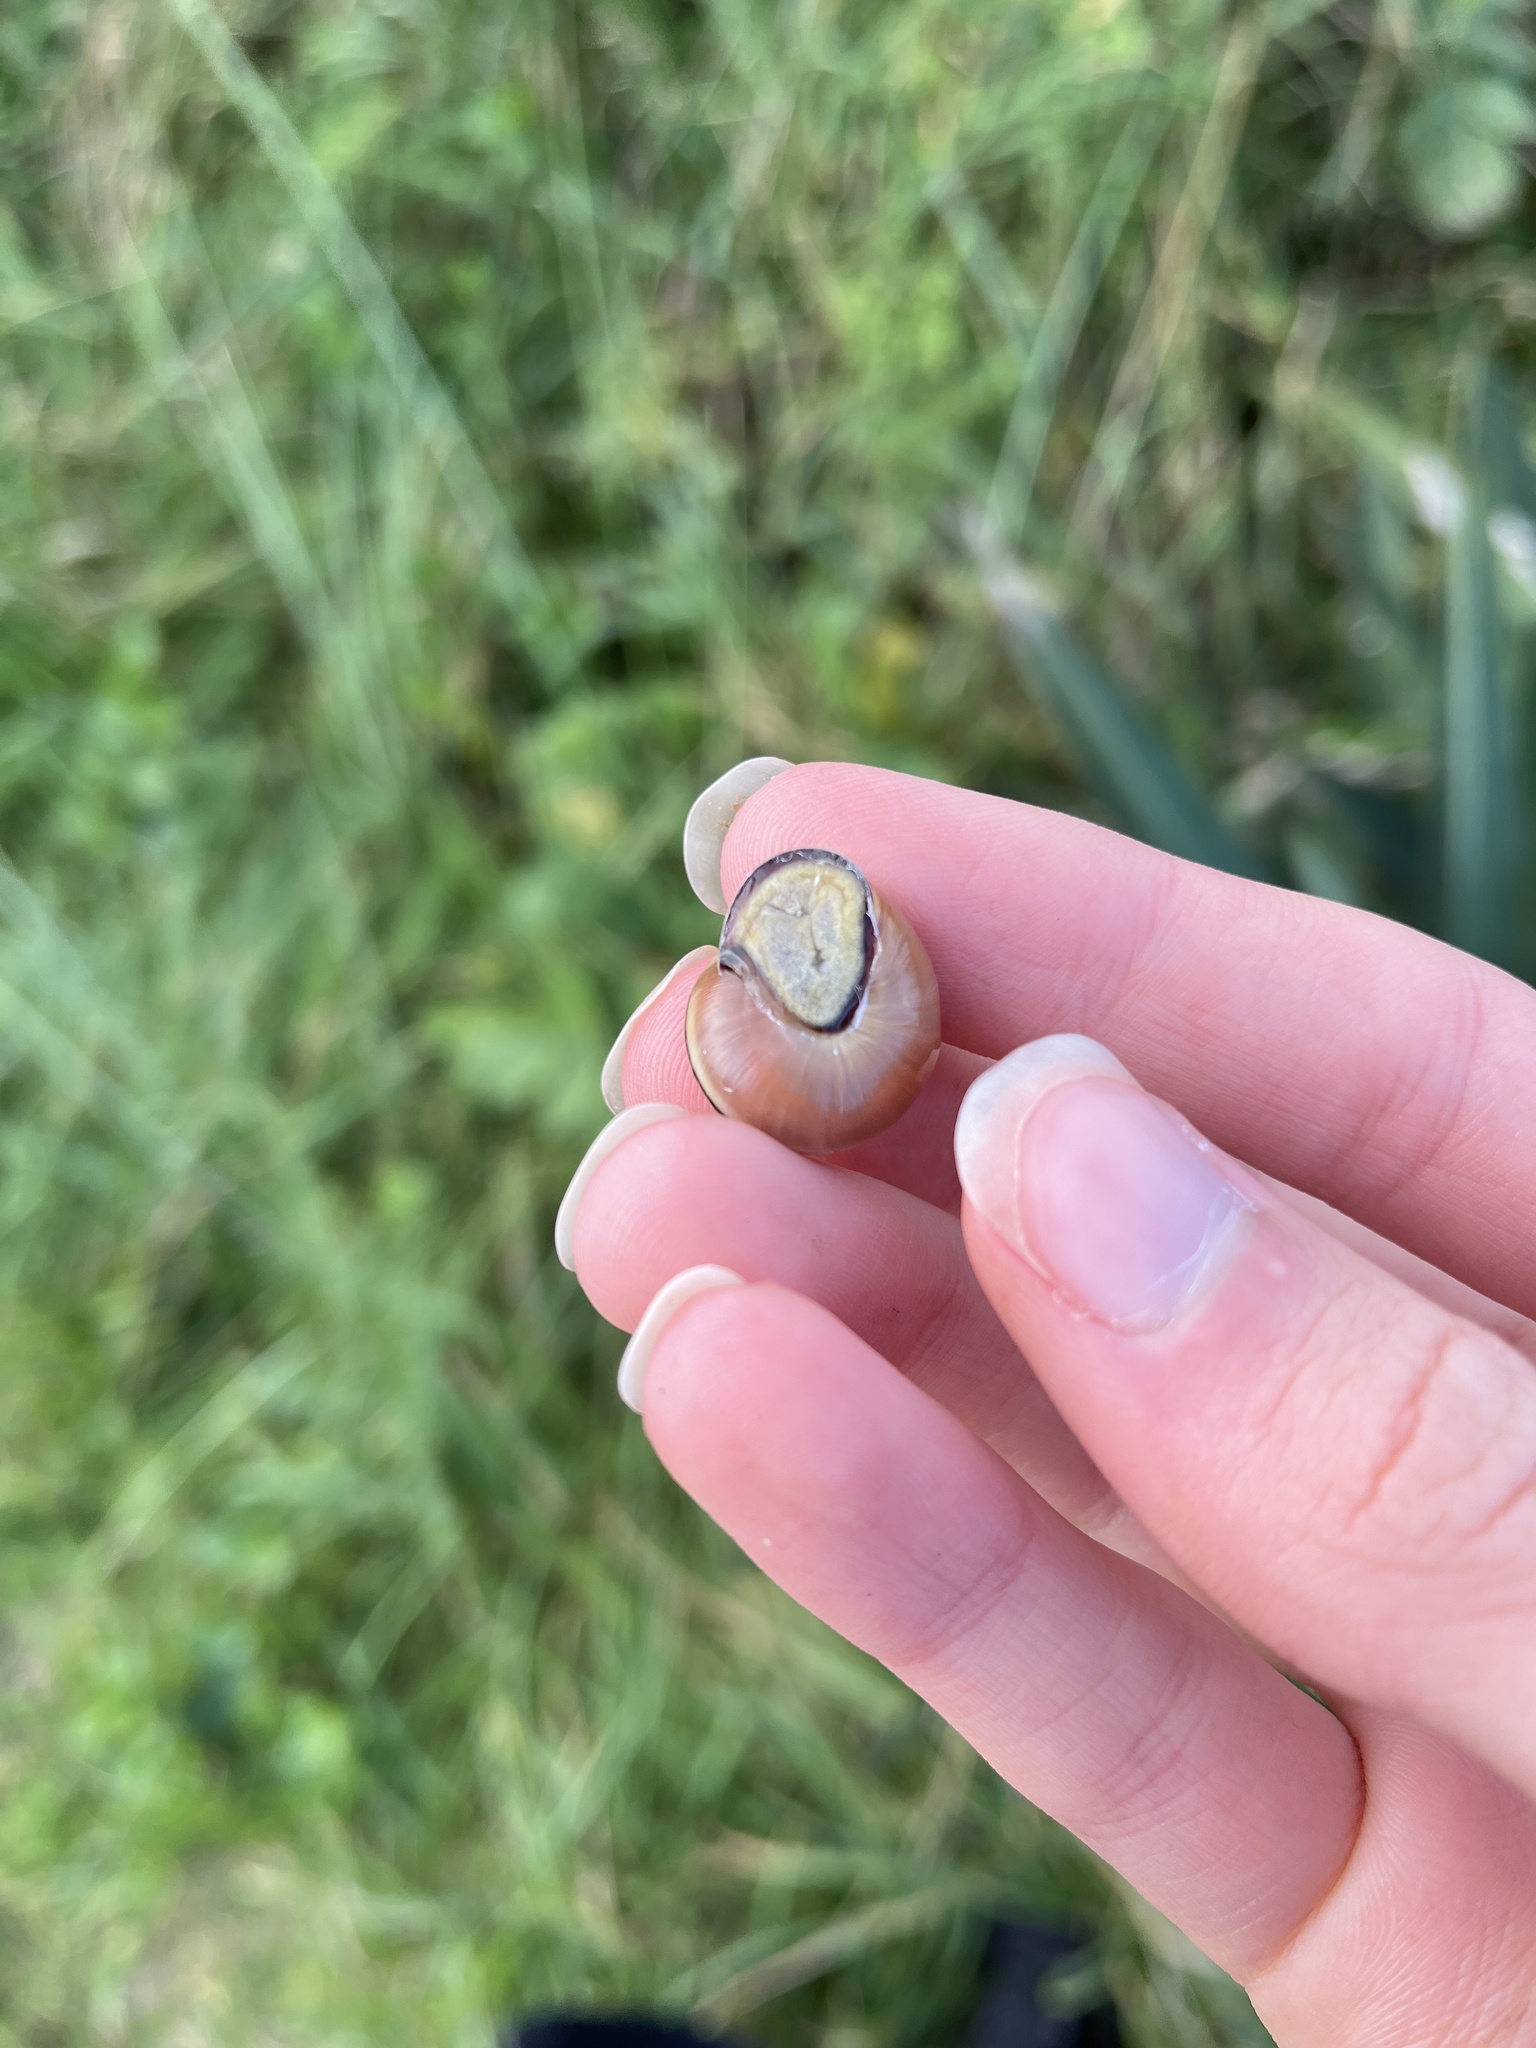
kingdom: Animalia
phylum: Mollusca
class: Gastropoda
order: Stylommatophora
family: Helicidae
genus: Cepaea
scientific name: Cepaea nemoralis
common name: Grovesnail
